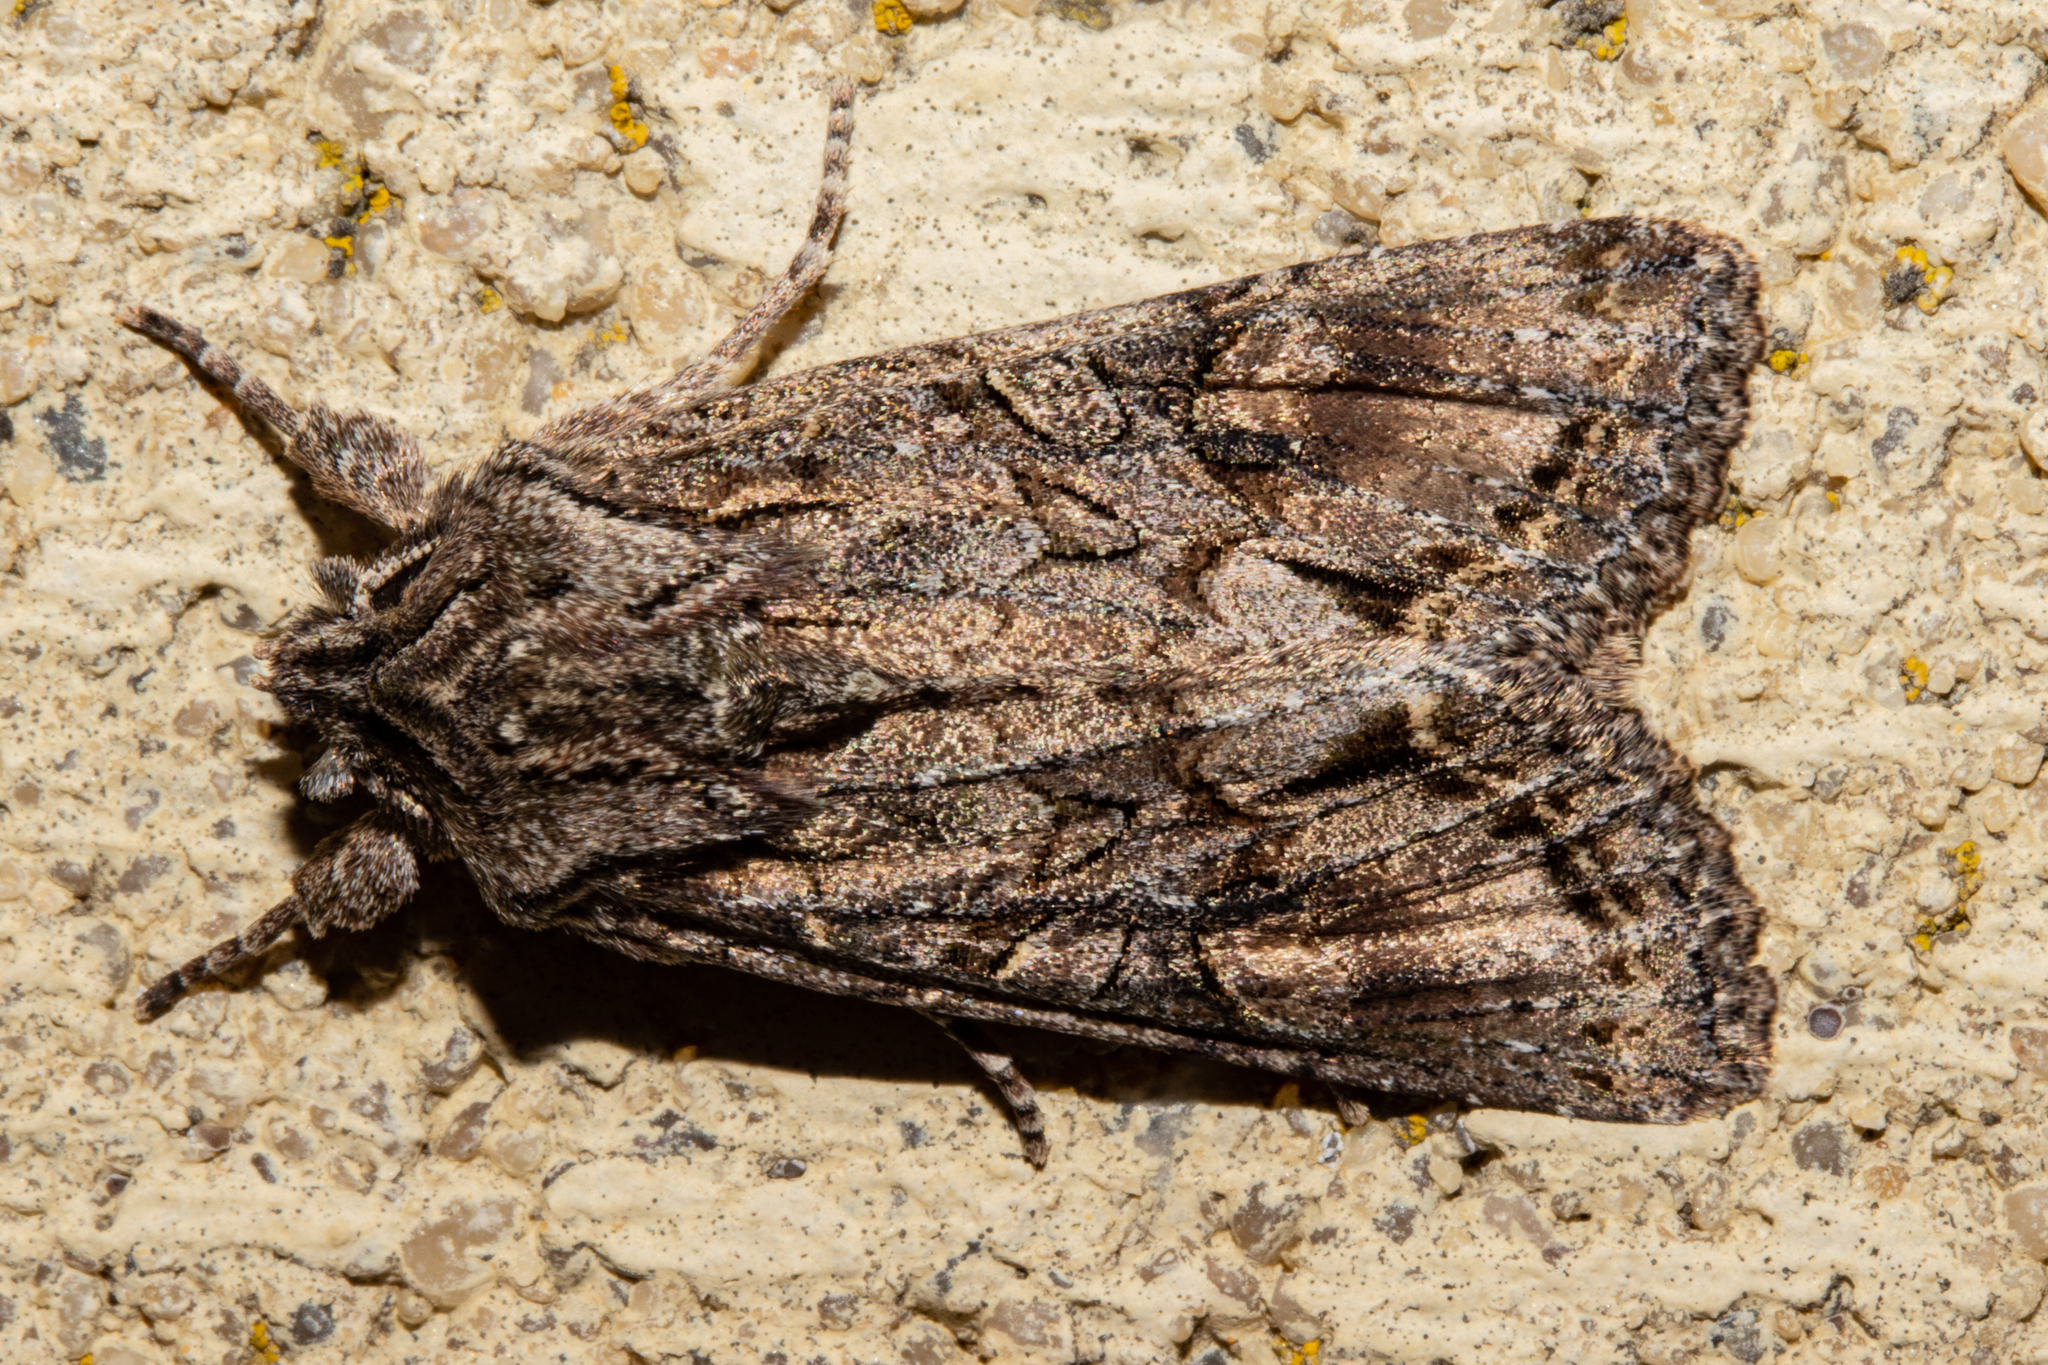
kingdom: Animalia
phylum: Arthropoda
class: Insecta
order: Lepidoptera
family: Noctuidae
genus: Ichneutica
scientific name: Ichneutica mutans
